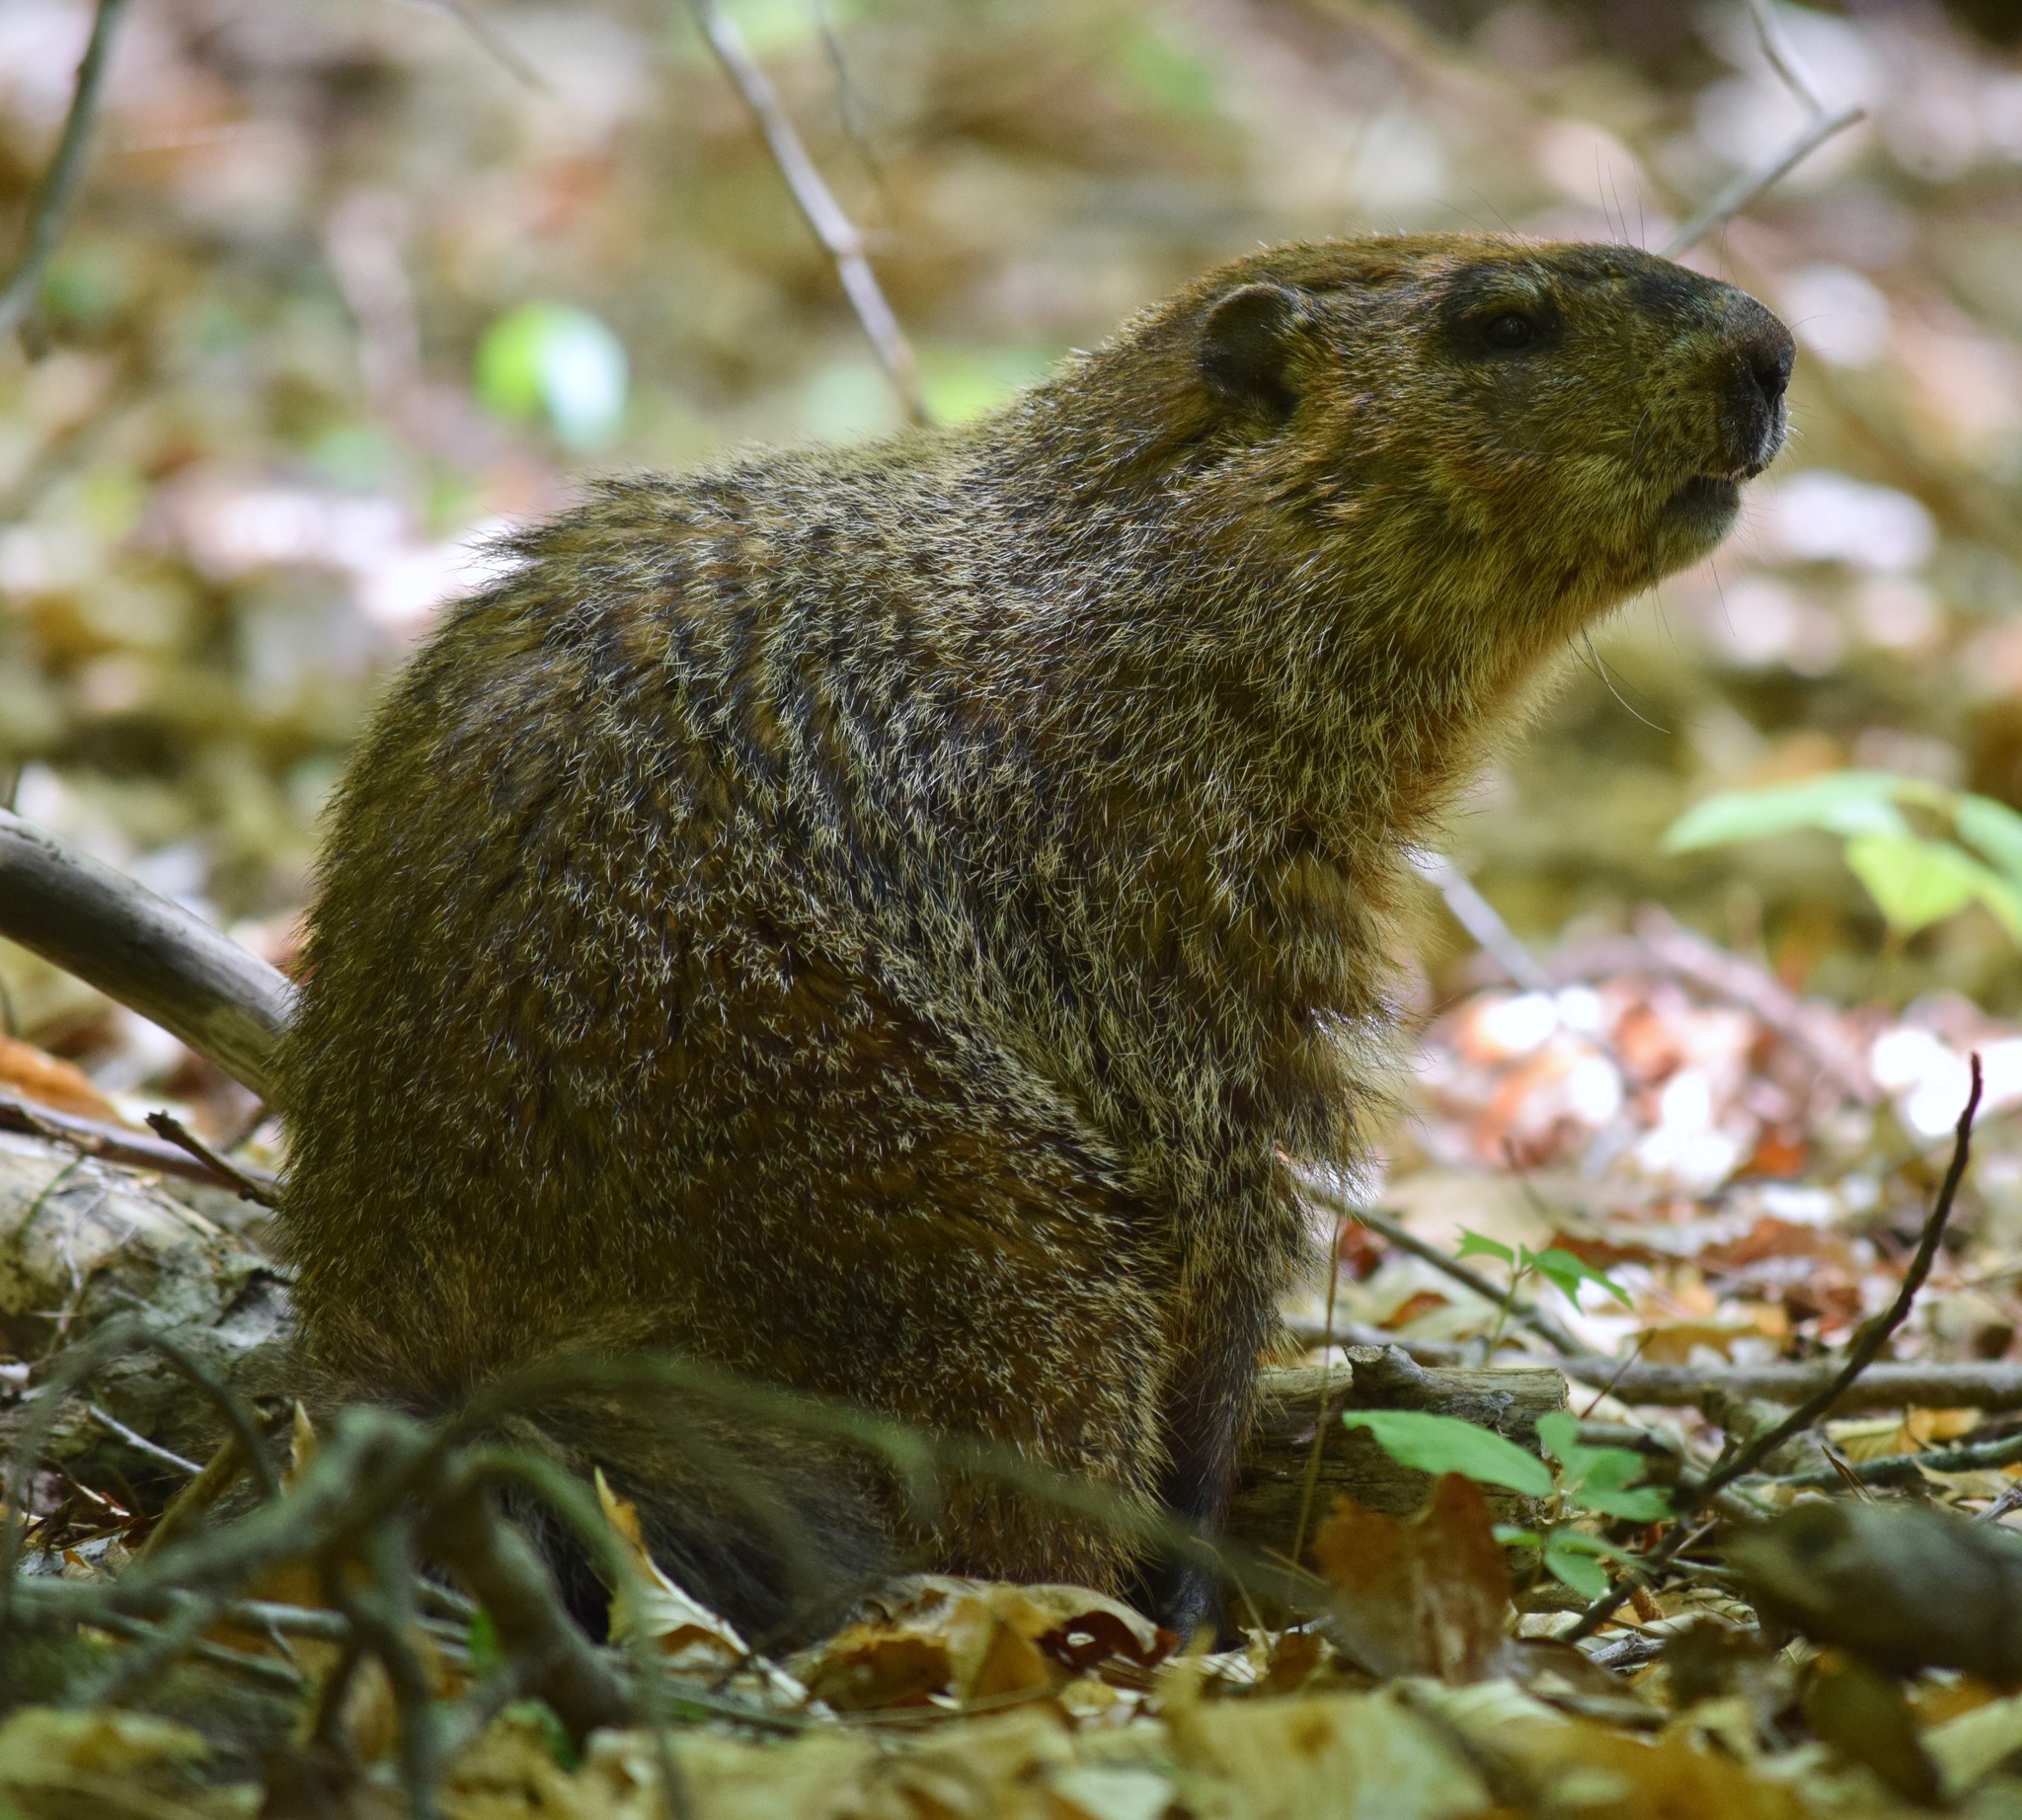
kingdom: Animalia
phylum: Chordata
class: Mammalia
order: Rodentia
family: Sciuridae
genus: Marmota
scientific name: Marmota monax
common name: Groundhog
